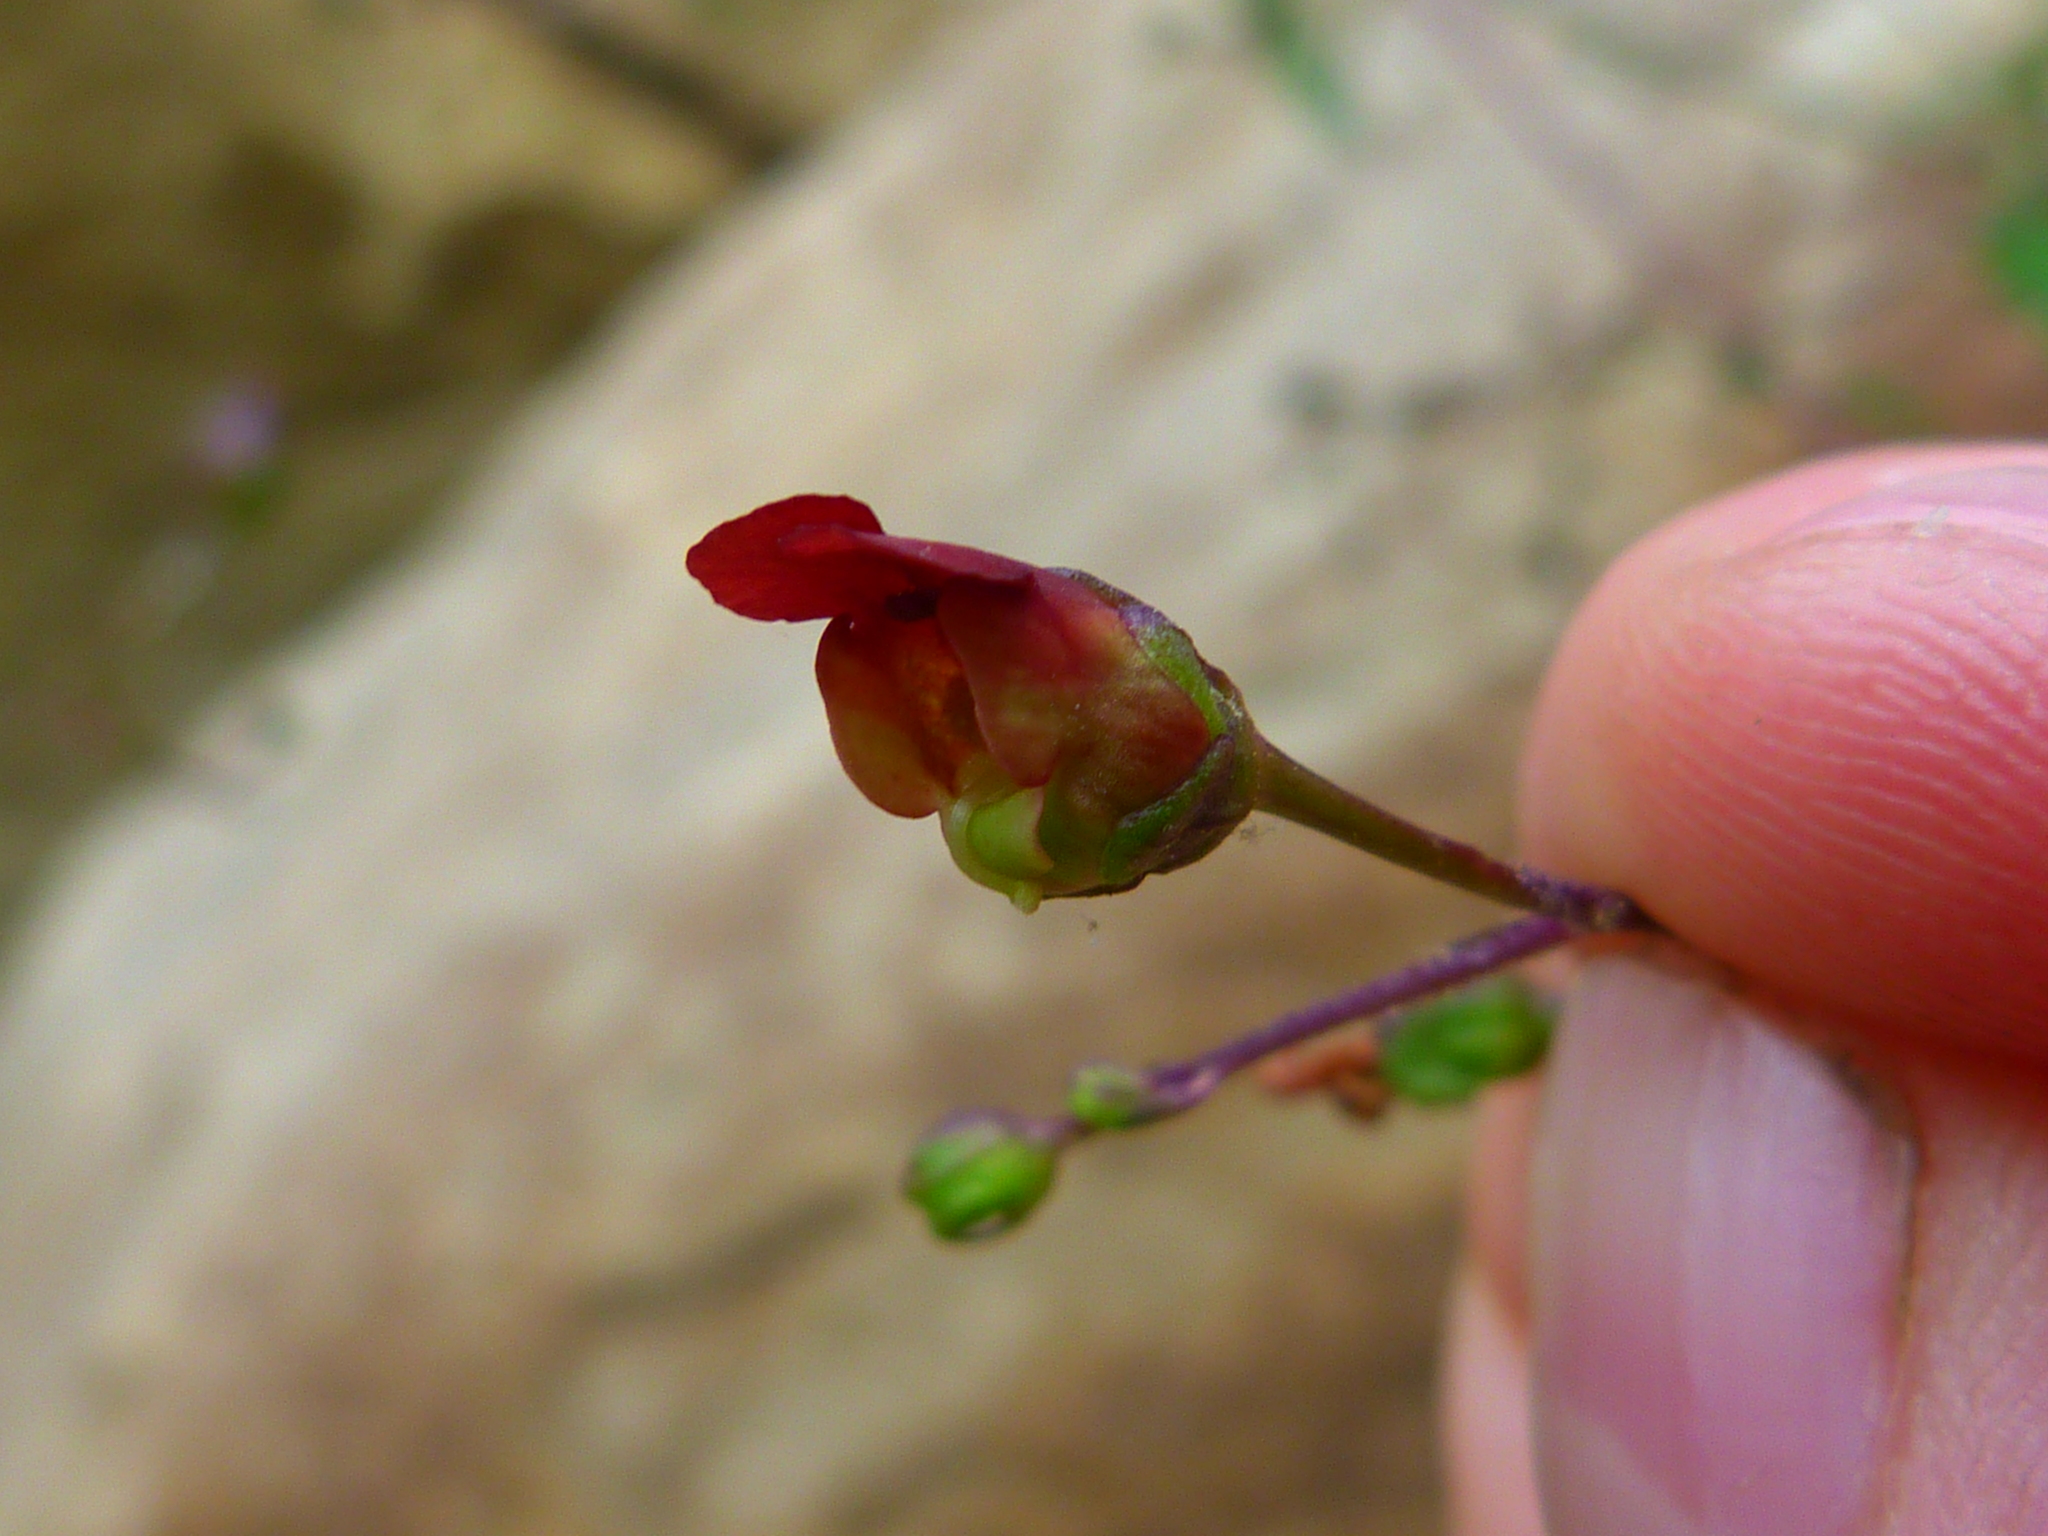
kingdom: Plantae
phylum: Tracheophyta
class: Magnoliopsida
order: Lamiales
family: Scrophulariaceae
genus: Scrophularia
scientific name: Scrophularia californica
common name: California figwort
